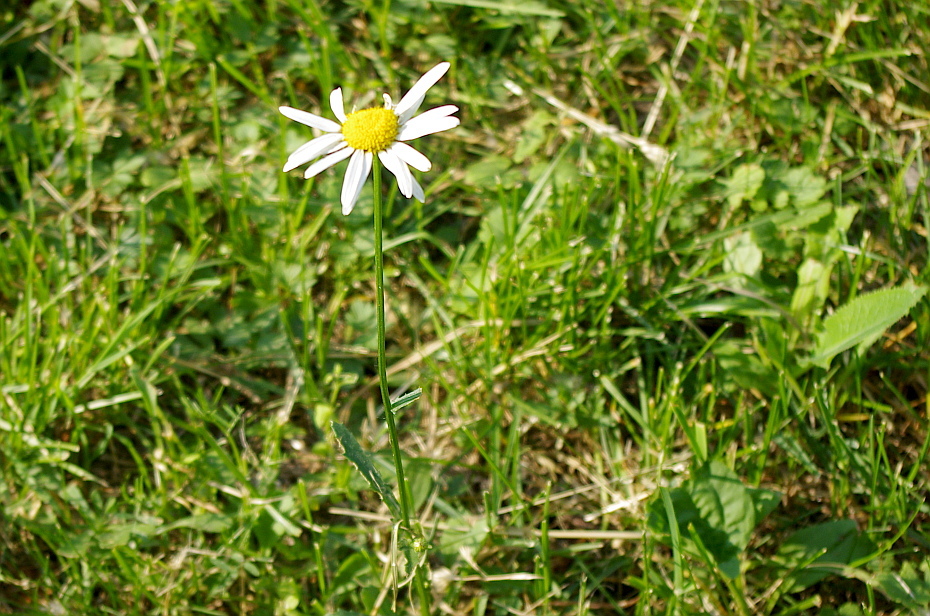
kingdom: Plantae
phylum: Tracheophyta
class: Magnoliopsida
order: Asterales
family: Asteraceae
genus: Leucanthemum
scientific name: Leucanthemum vulgare
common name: Oxeye daisy
